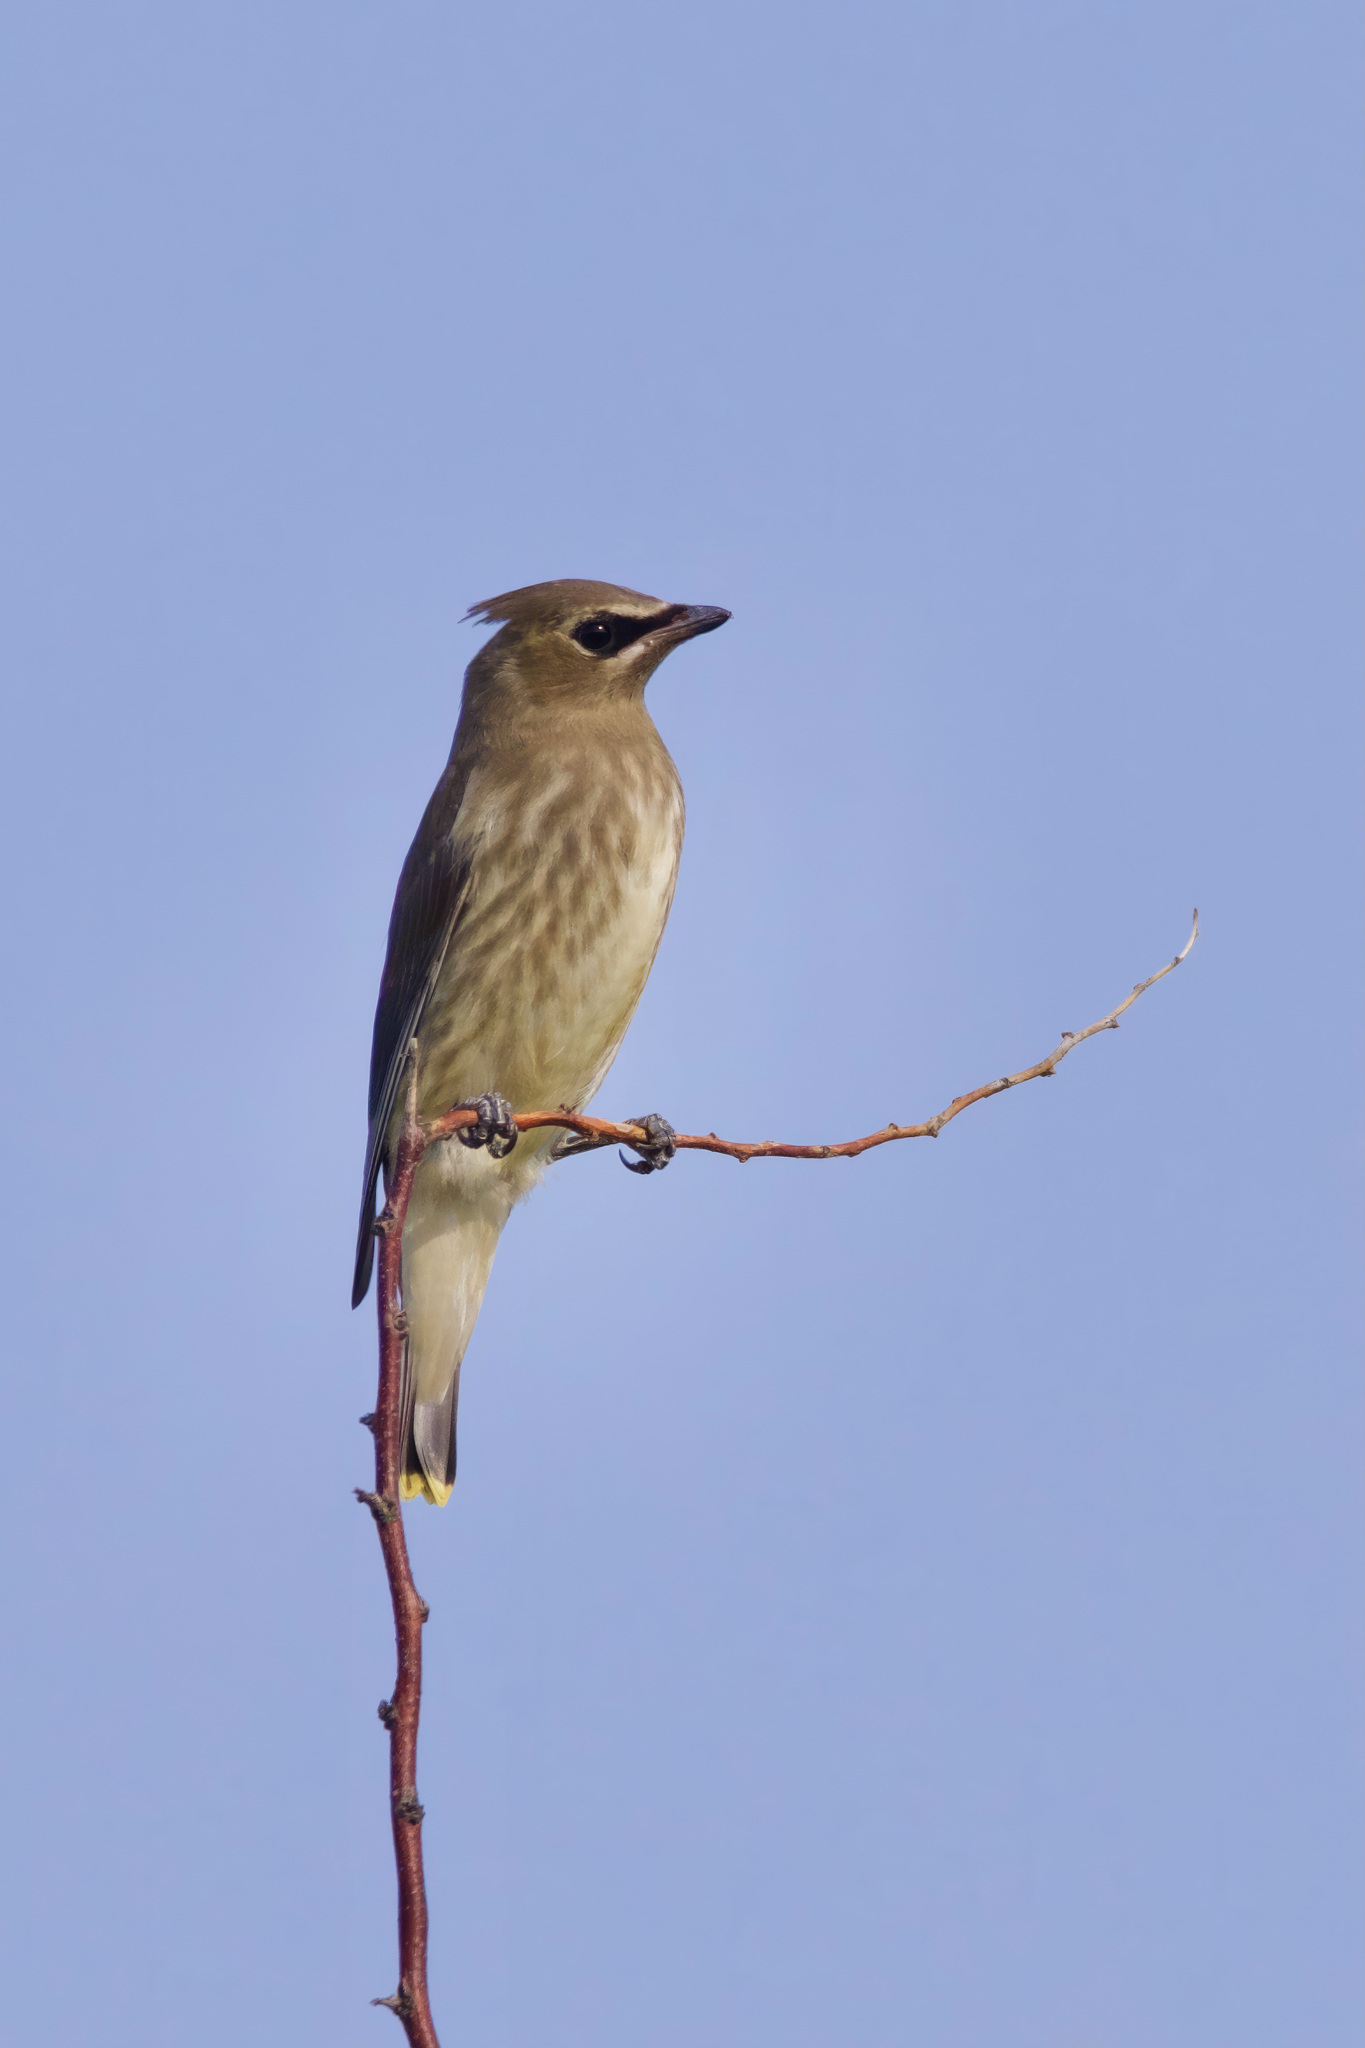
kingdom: Animalia
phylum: Chordata
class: Aves
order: Passeriformes
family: Bombycillidae
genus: Bombycilla
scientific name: Bombycilla cedrorum
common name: Cedar waxwing
